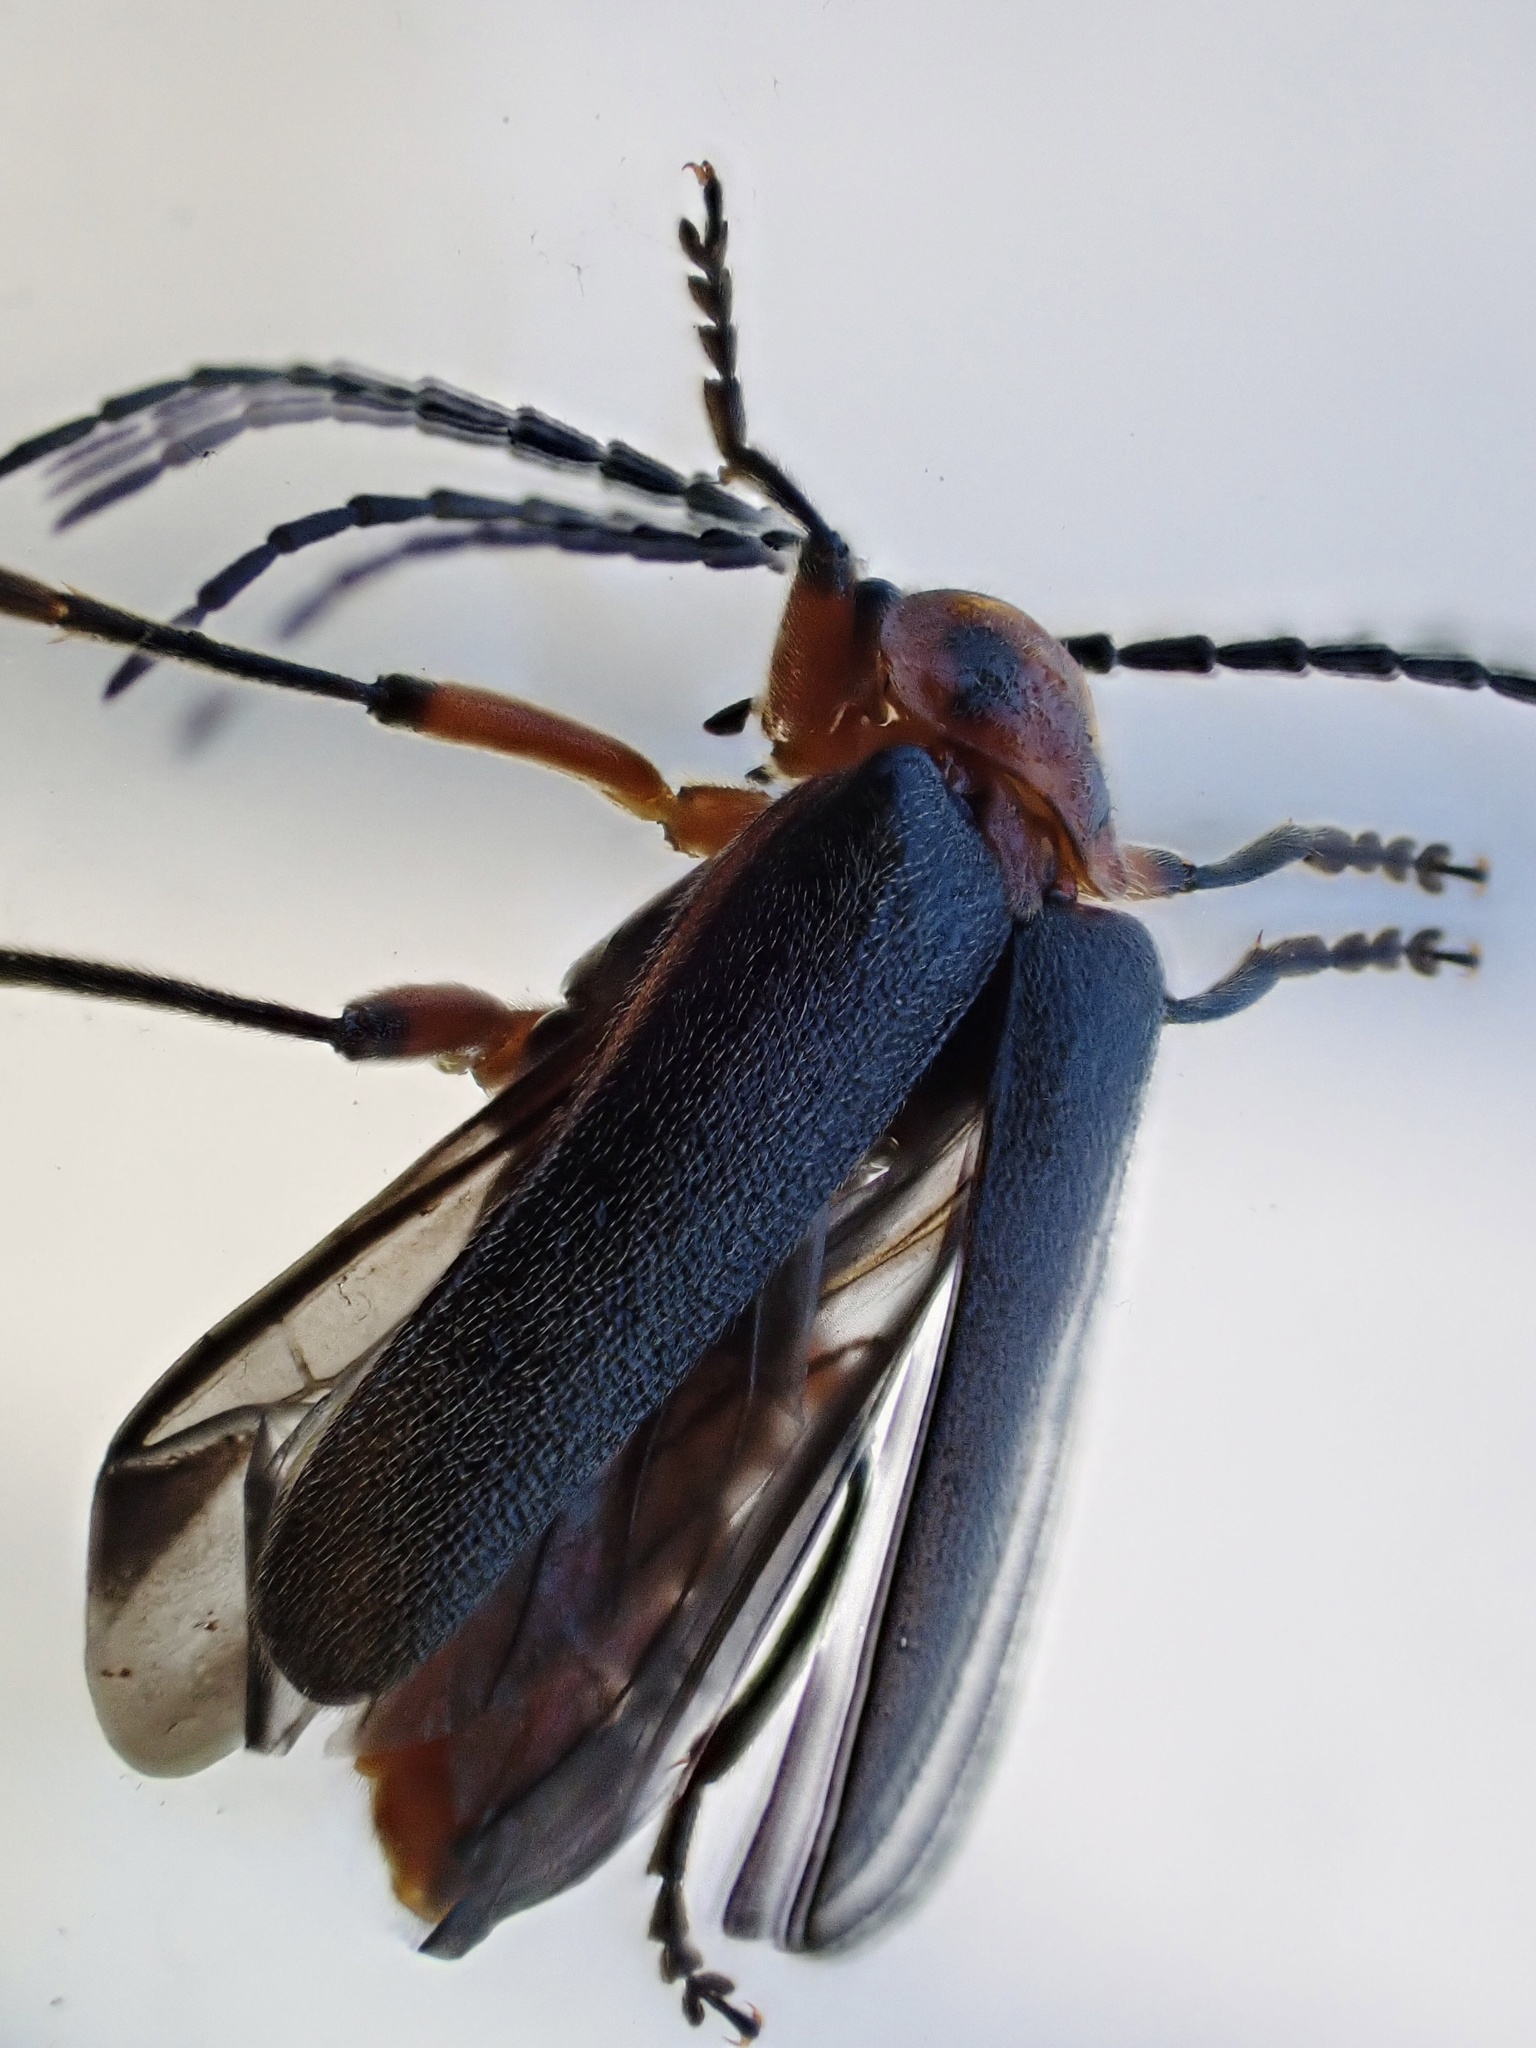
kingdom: Animalia
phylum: Arthropoda
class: Insecta
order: Coleoptera
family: Cantharidae
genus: Atalantycha
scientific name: Atalantycha bilineata
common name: Two-lined leatherwing
